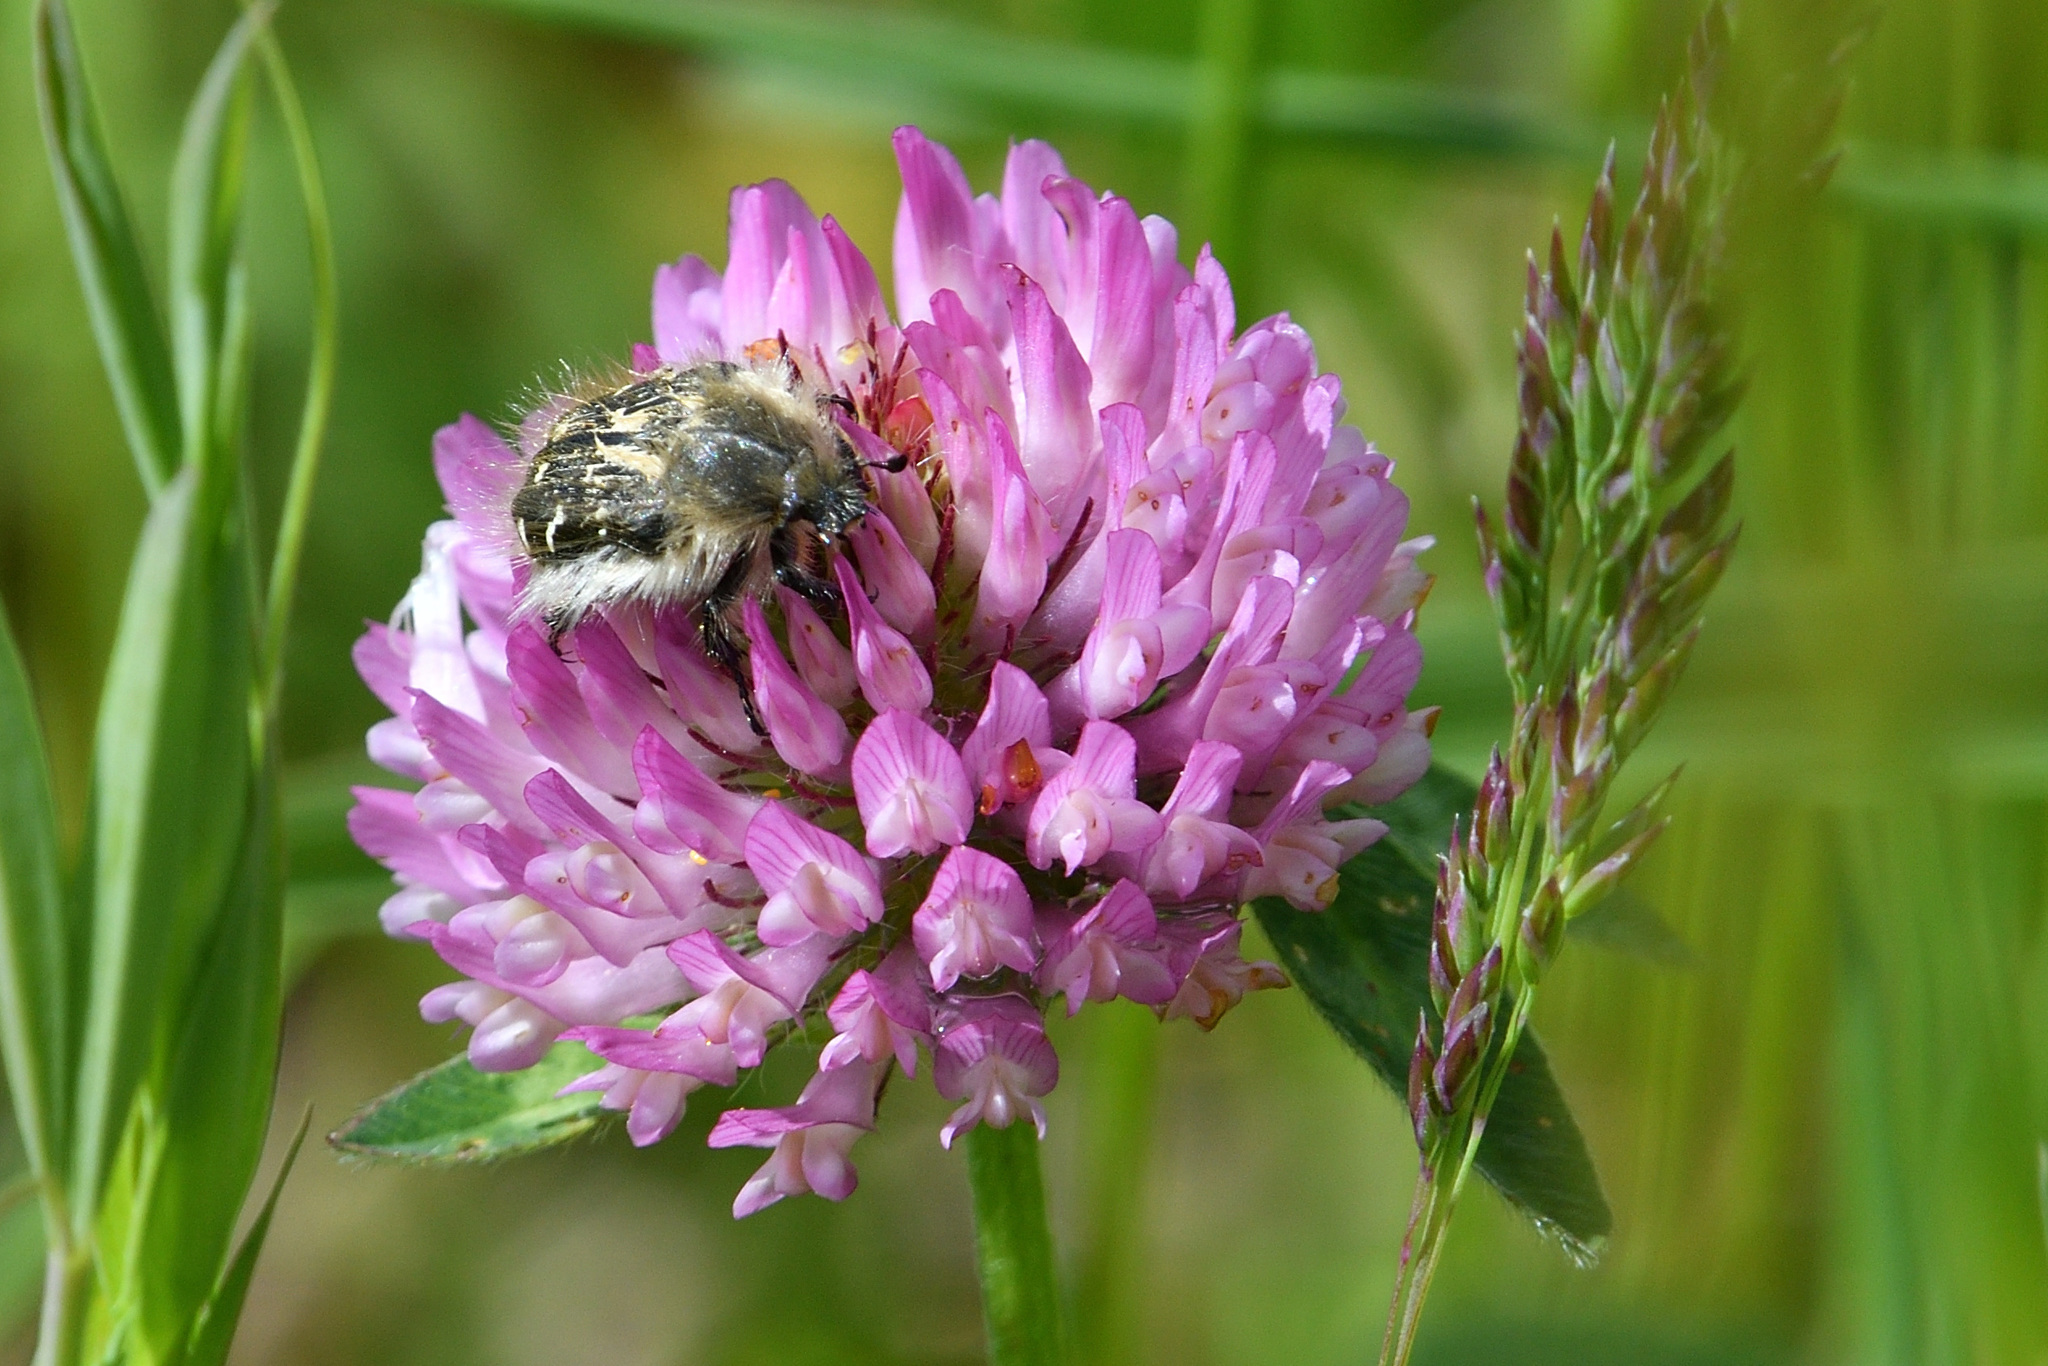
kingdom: Animalia
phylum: Arthropoda
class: Insecta
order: Coleoptera
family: Scarabaeidae
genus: Tropinota
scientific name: Tropinota hirta
